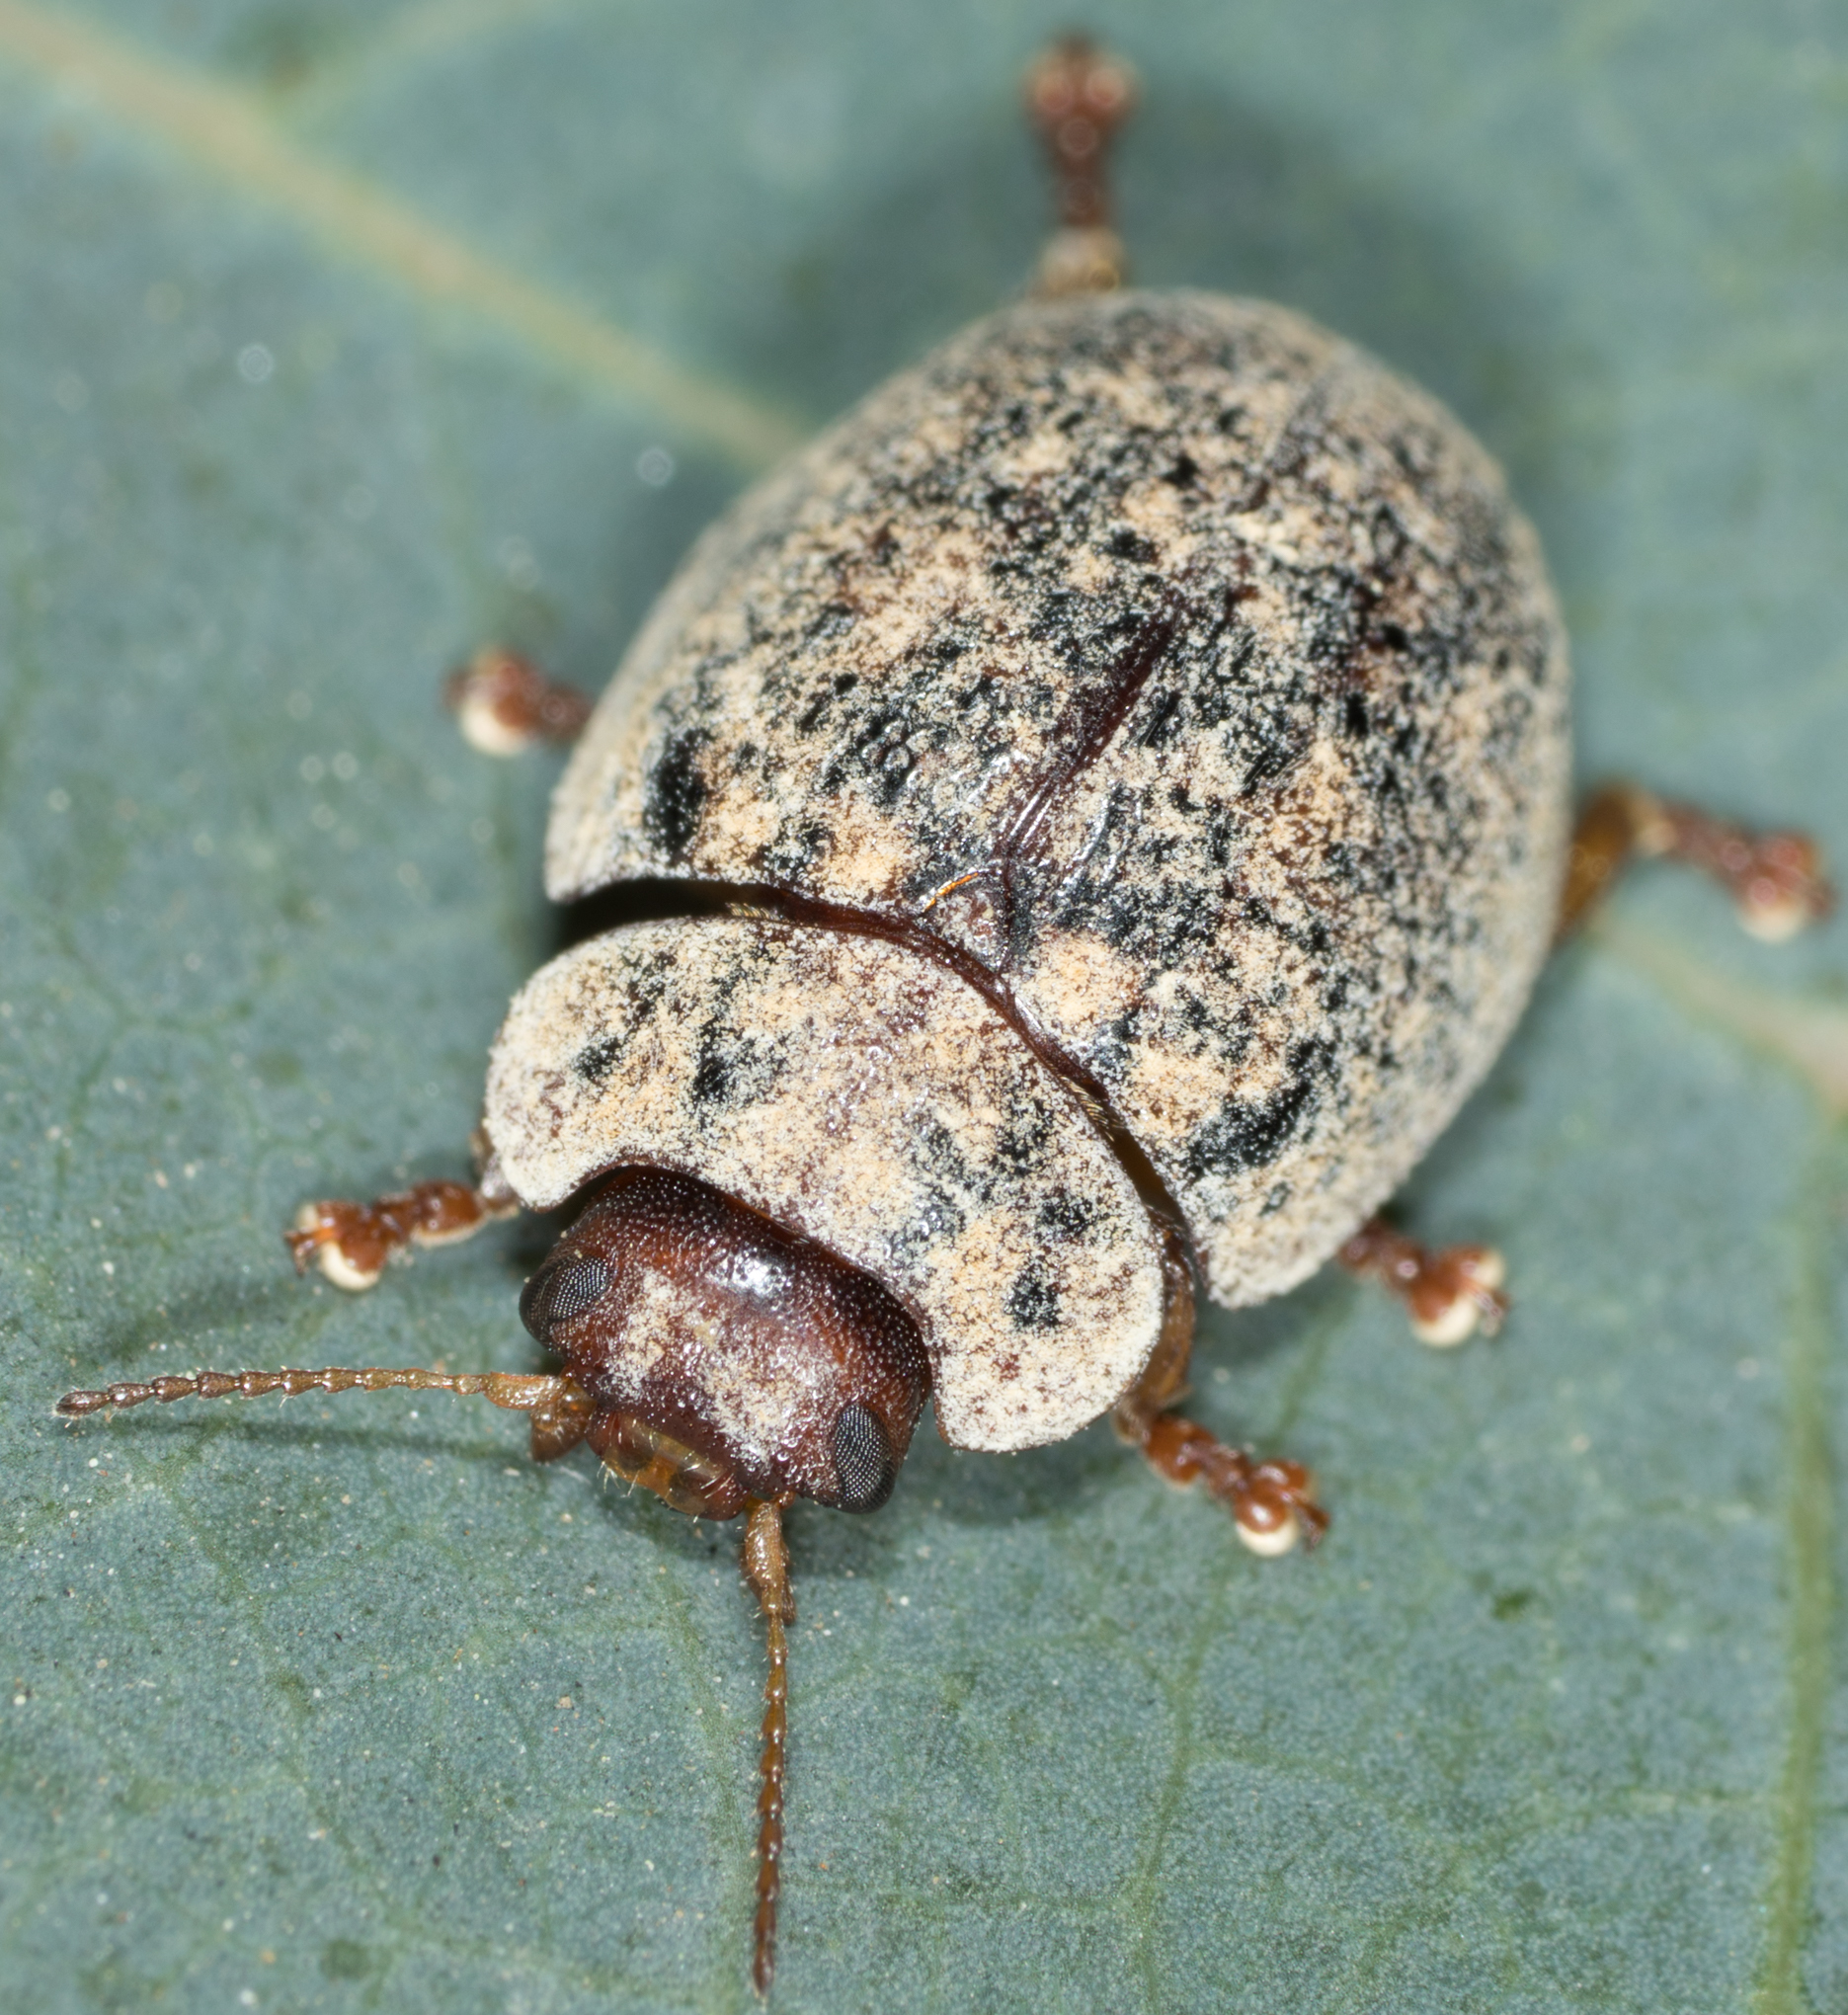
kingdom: Animalia
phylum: Arthropoda
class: Insecta
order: Coleoptera
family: Chrysomelidae
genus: Trachymela
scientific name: Trachymela sloanei
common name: Australian tortoise beetle
